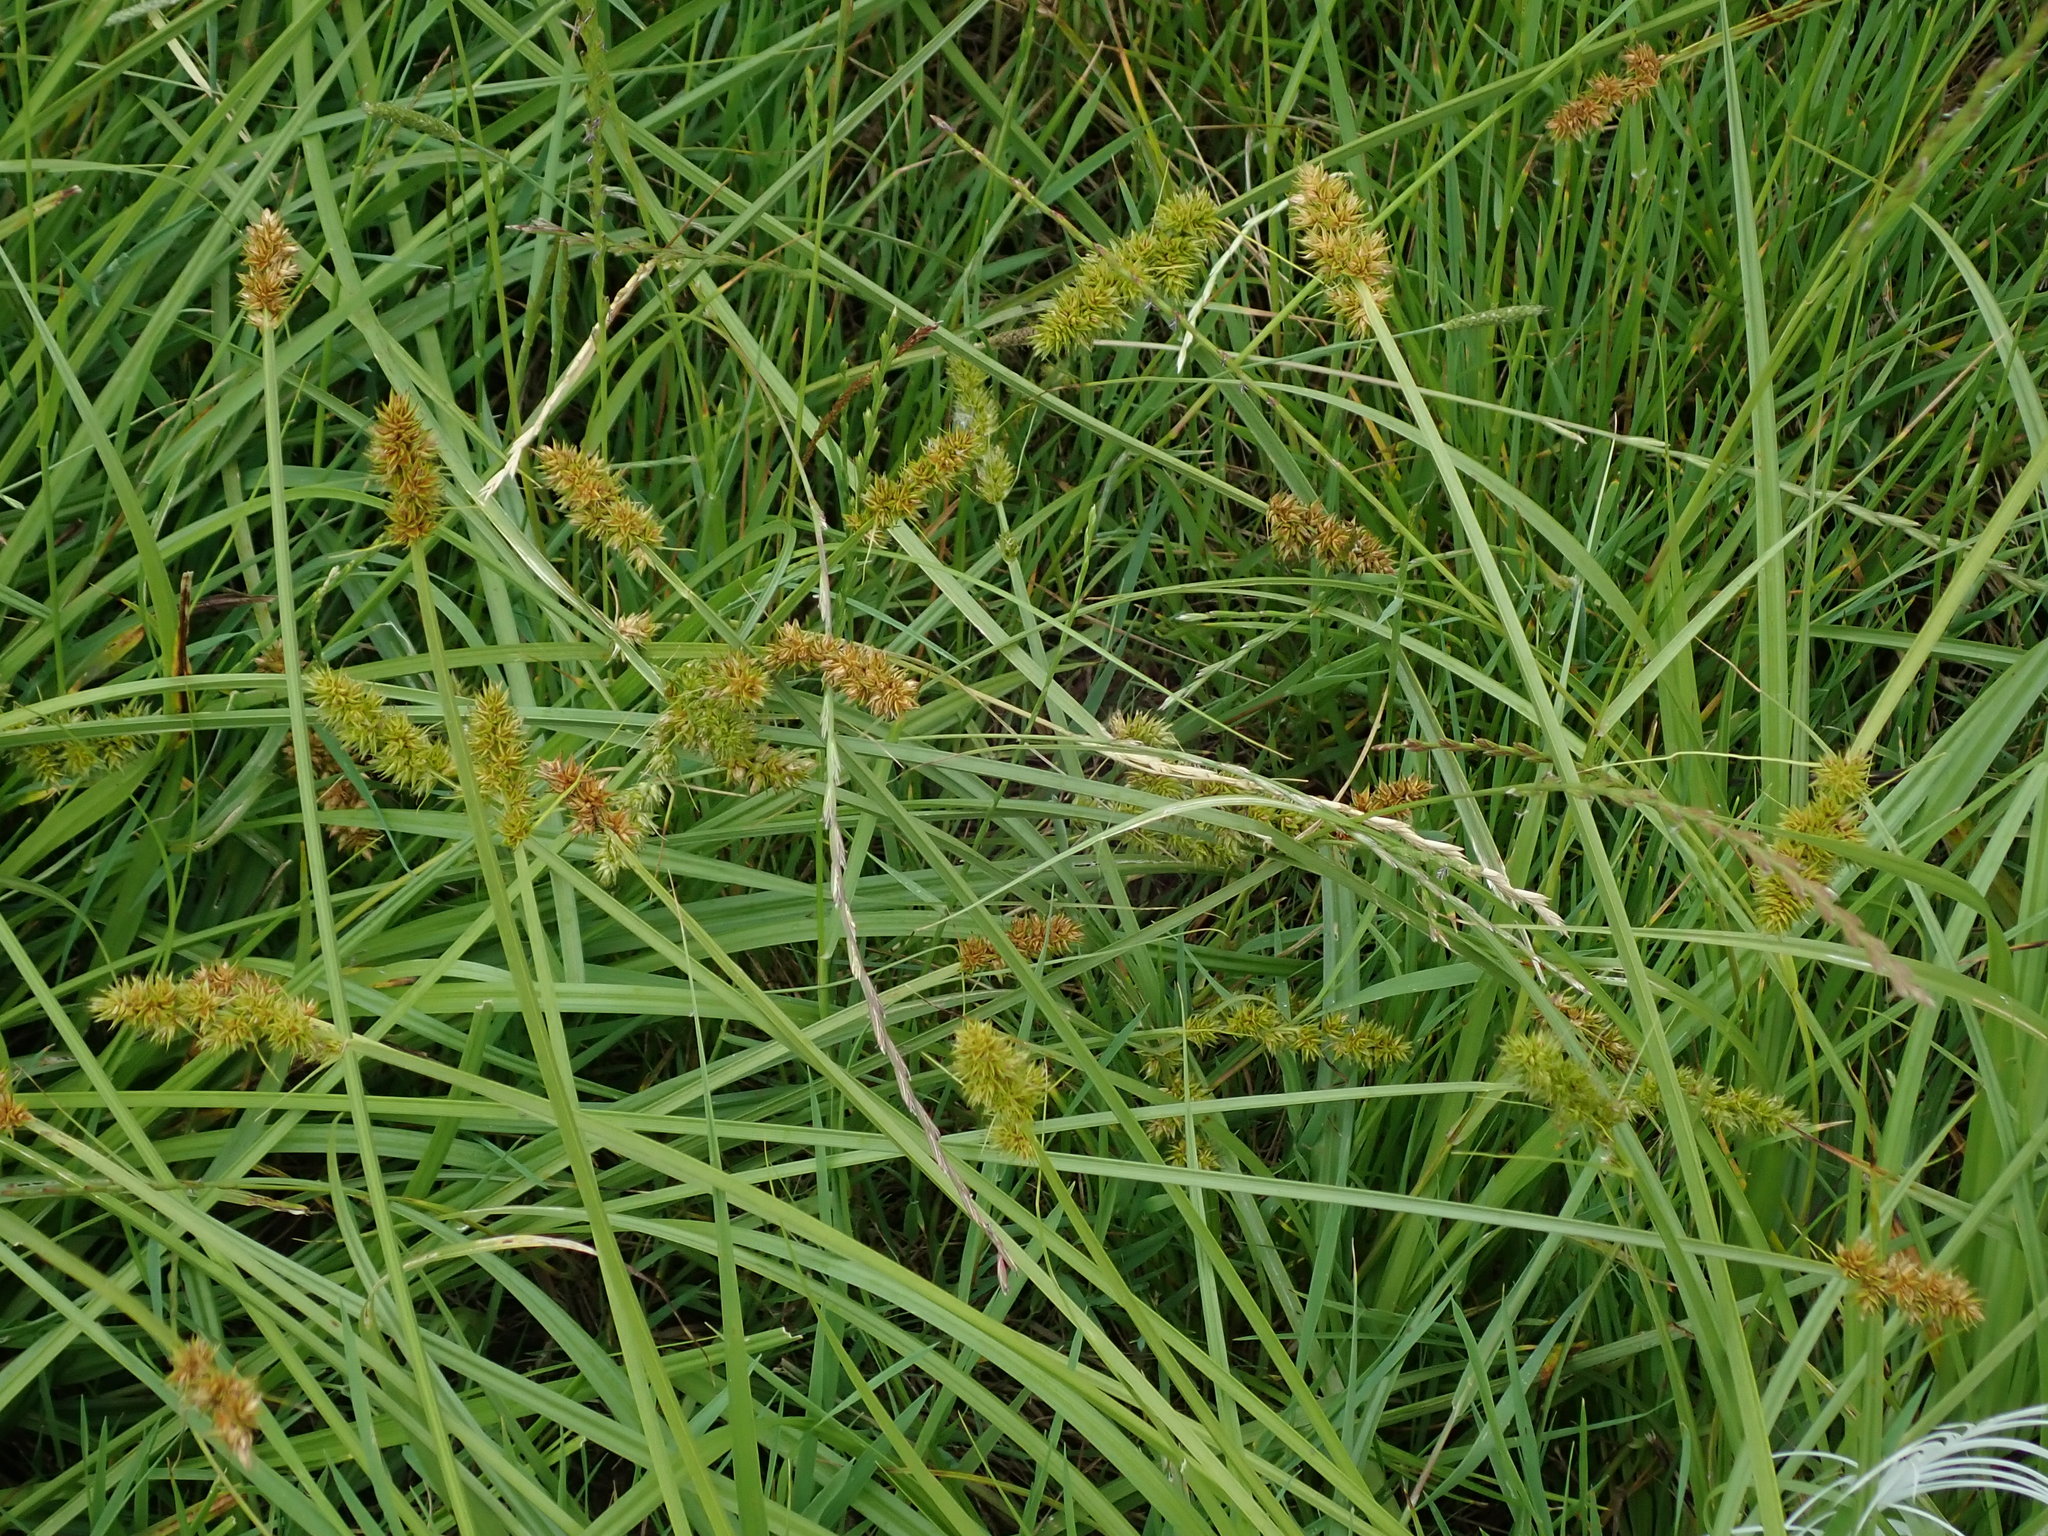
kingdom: Plantae
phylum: Tracheophyta
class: Liliopsida
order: Poales
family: Cyperaceae
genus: Carex
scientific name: Carex otrubae
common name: False fox-sedge
